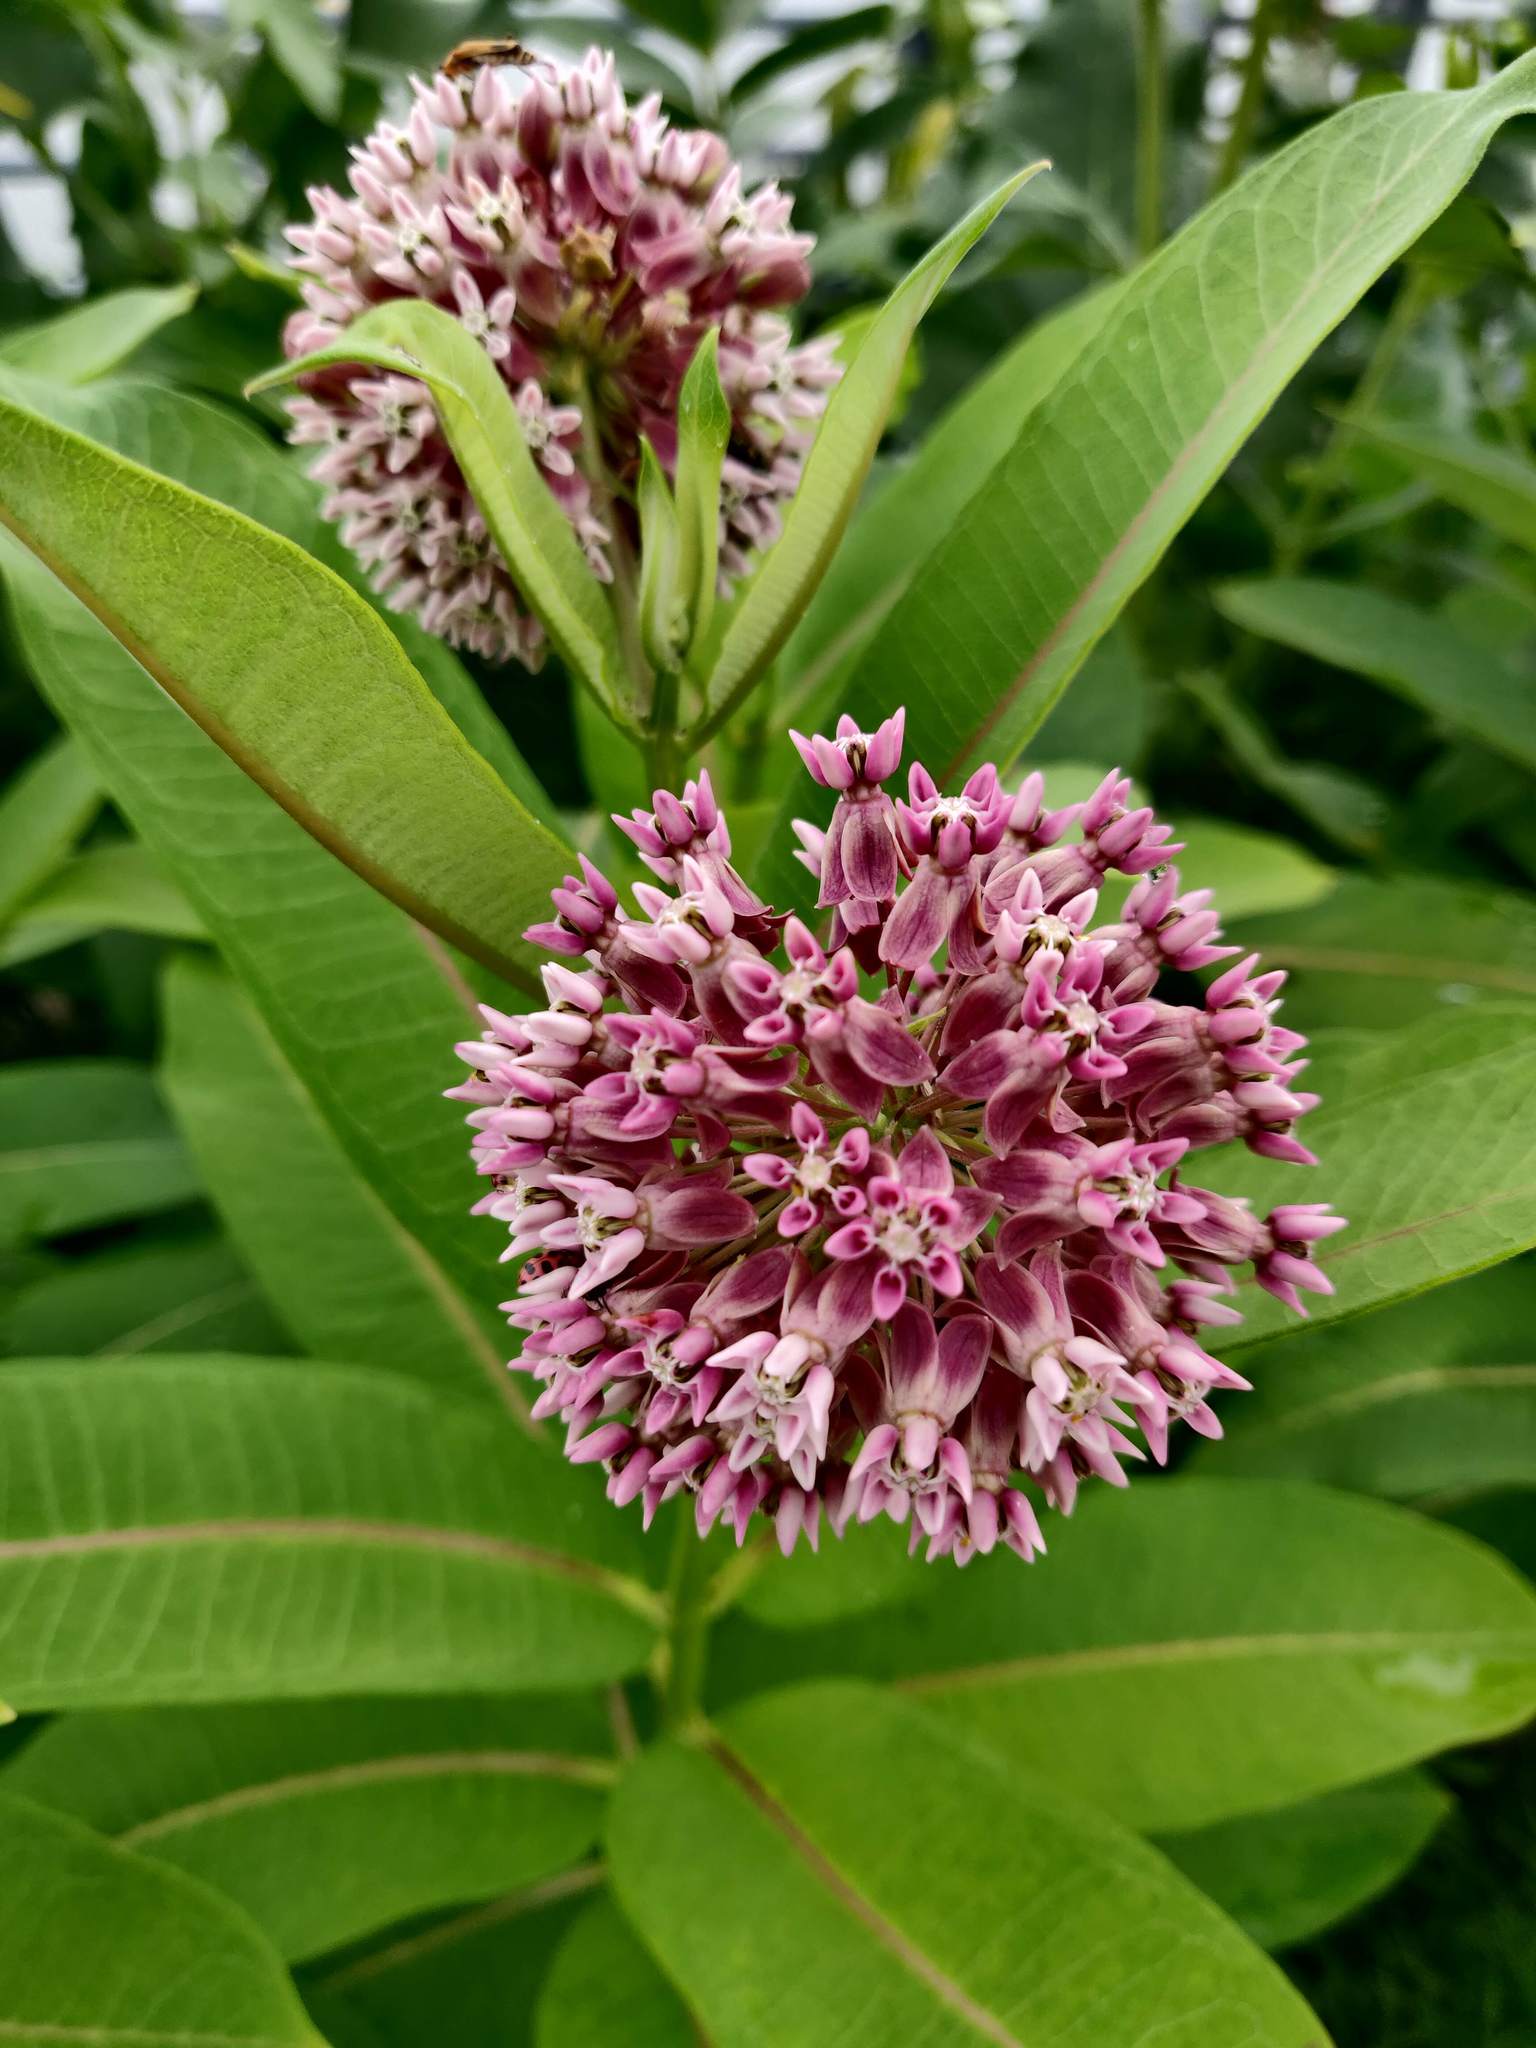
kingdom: Plantae
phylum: Tracheophyta
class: Magnoliopsida
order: Gentianales
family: Apocynaceae
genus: Asclepias
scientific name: Asclepias syriaca
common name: Common milkweed
